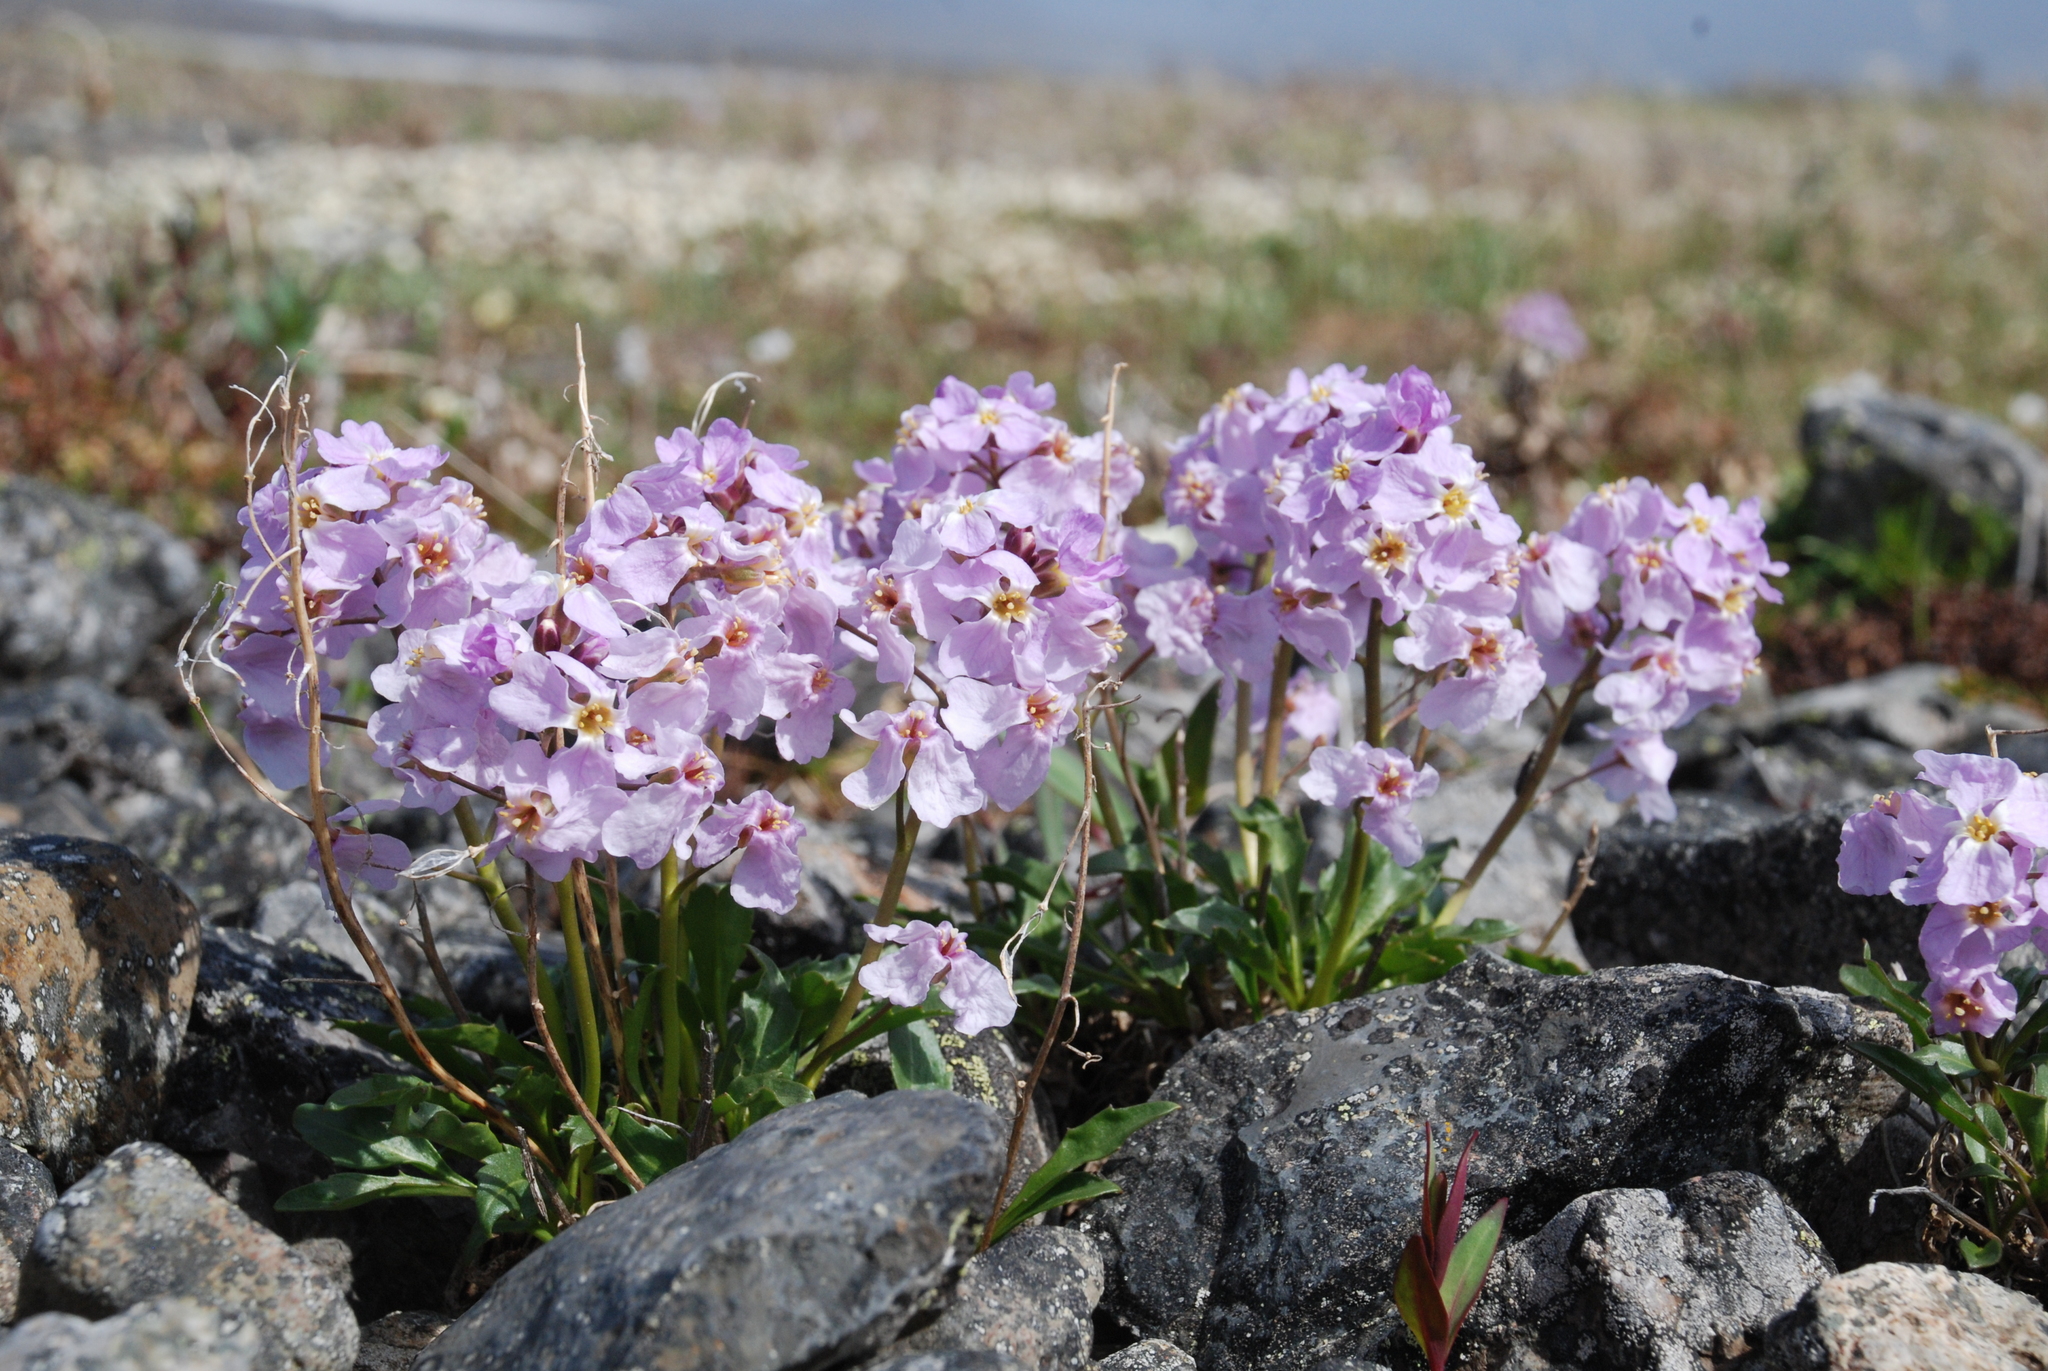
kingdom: Plantae
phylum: Tracheophyta
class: Magnoliopsida
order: Brassicales
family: Brassicaceae
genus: Parrya
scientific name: Parrya nudicaulis
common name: Naked-stemmed false wallflower
